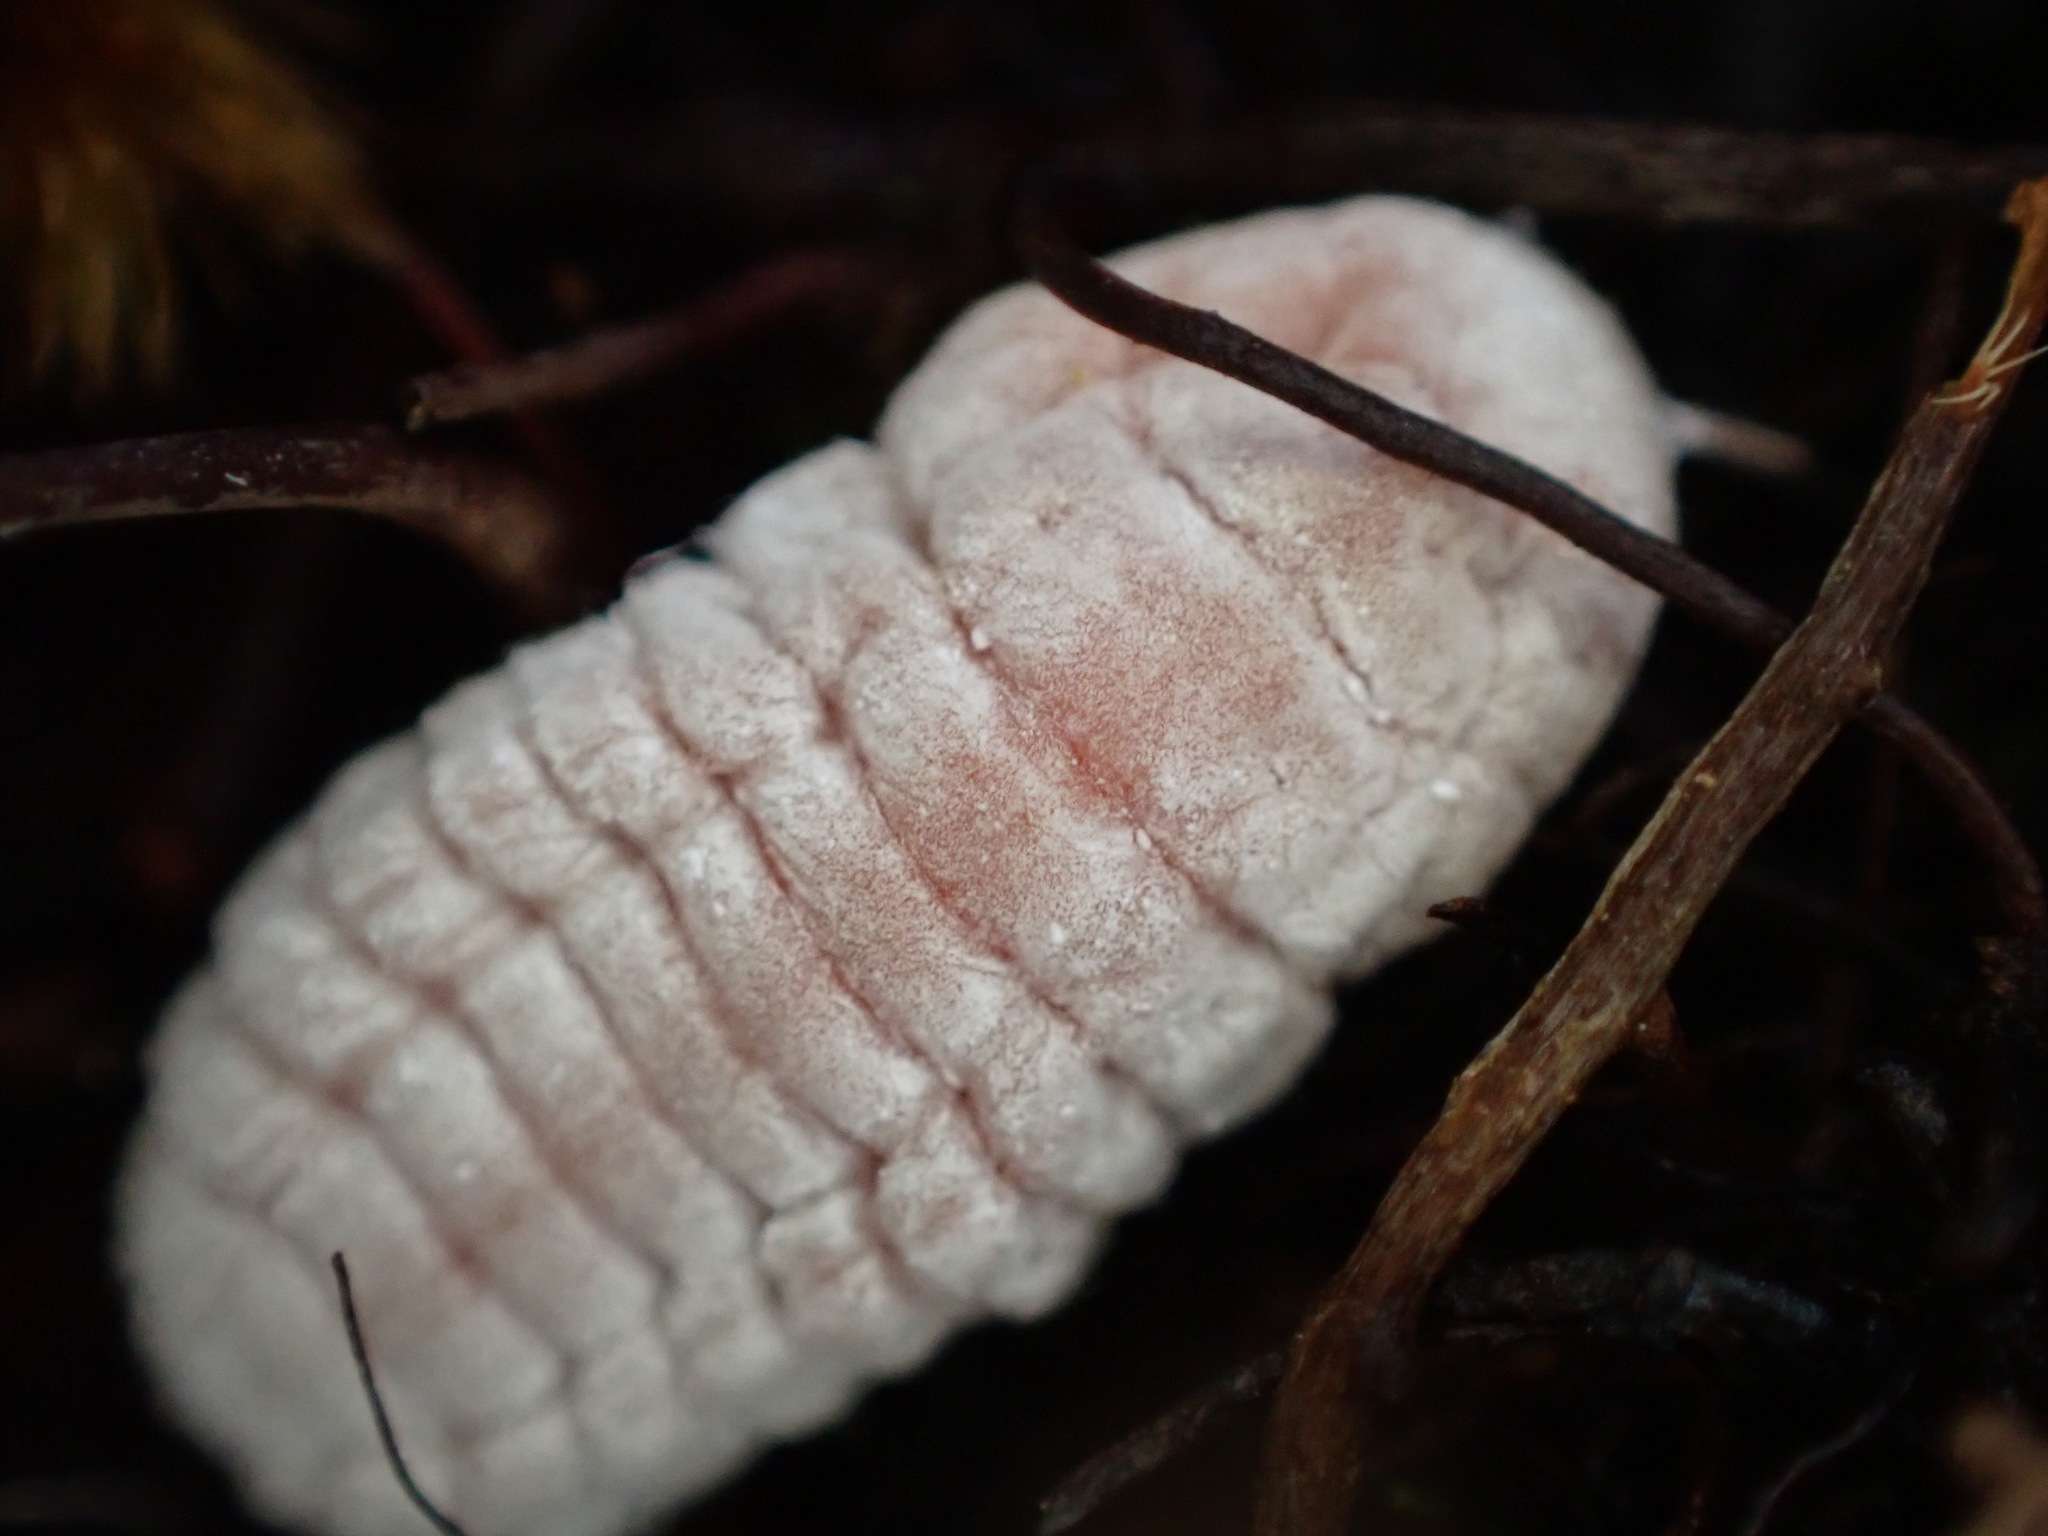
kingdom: Animalia
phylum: Arthropoda
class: Insecta
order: Hemiptera
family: Margarodidae
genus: Coelostomidia
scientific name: Coelostomidia zealandica
